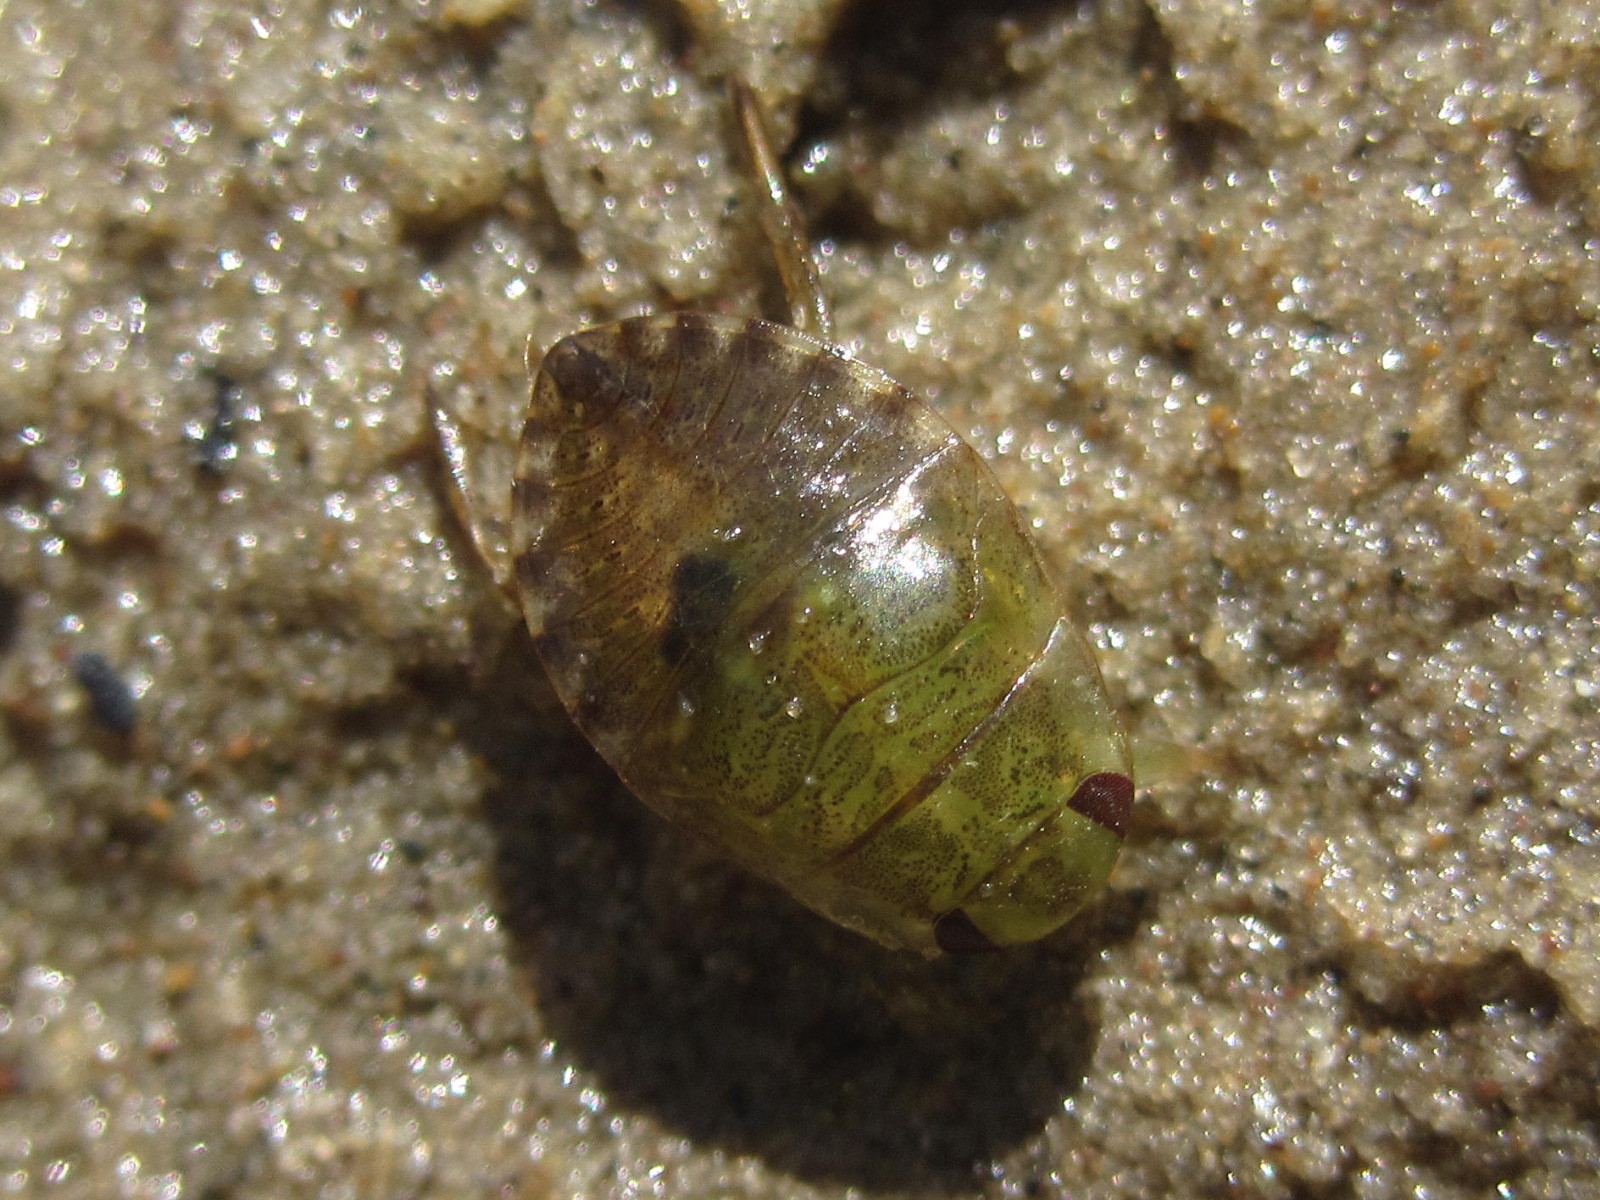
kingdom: Animalia
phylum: Arthropoda
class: Insecta
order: Hemiptera
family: Naucoridae
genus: Ilyocoris
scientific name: Ilyocoris cimicoides
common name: Saucer bugs
